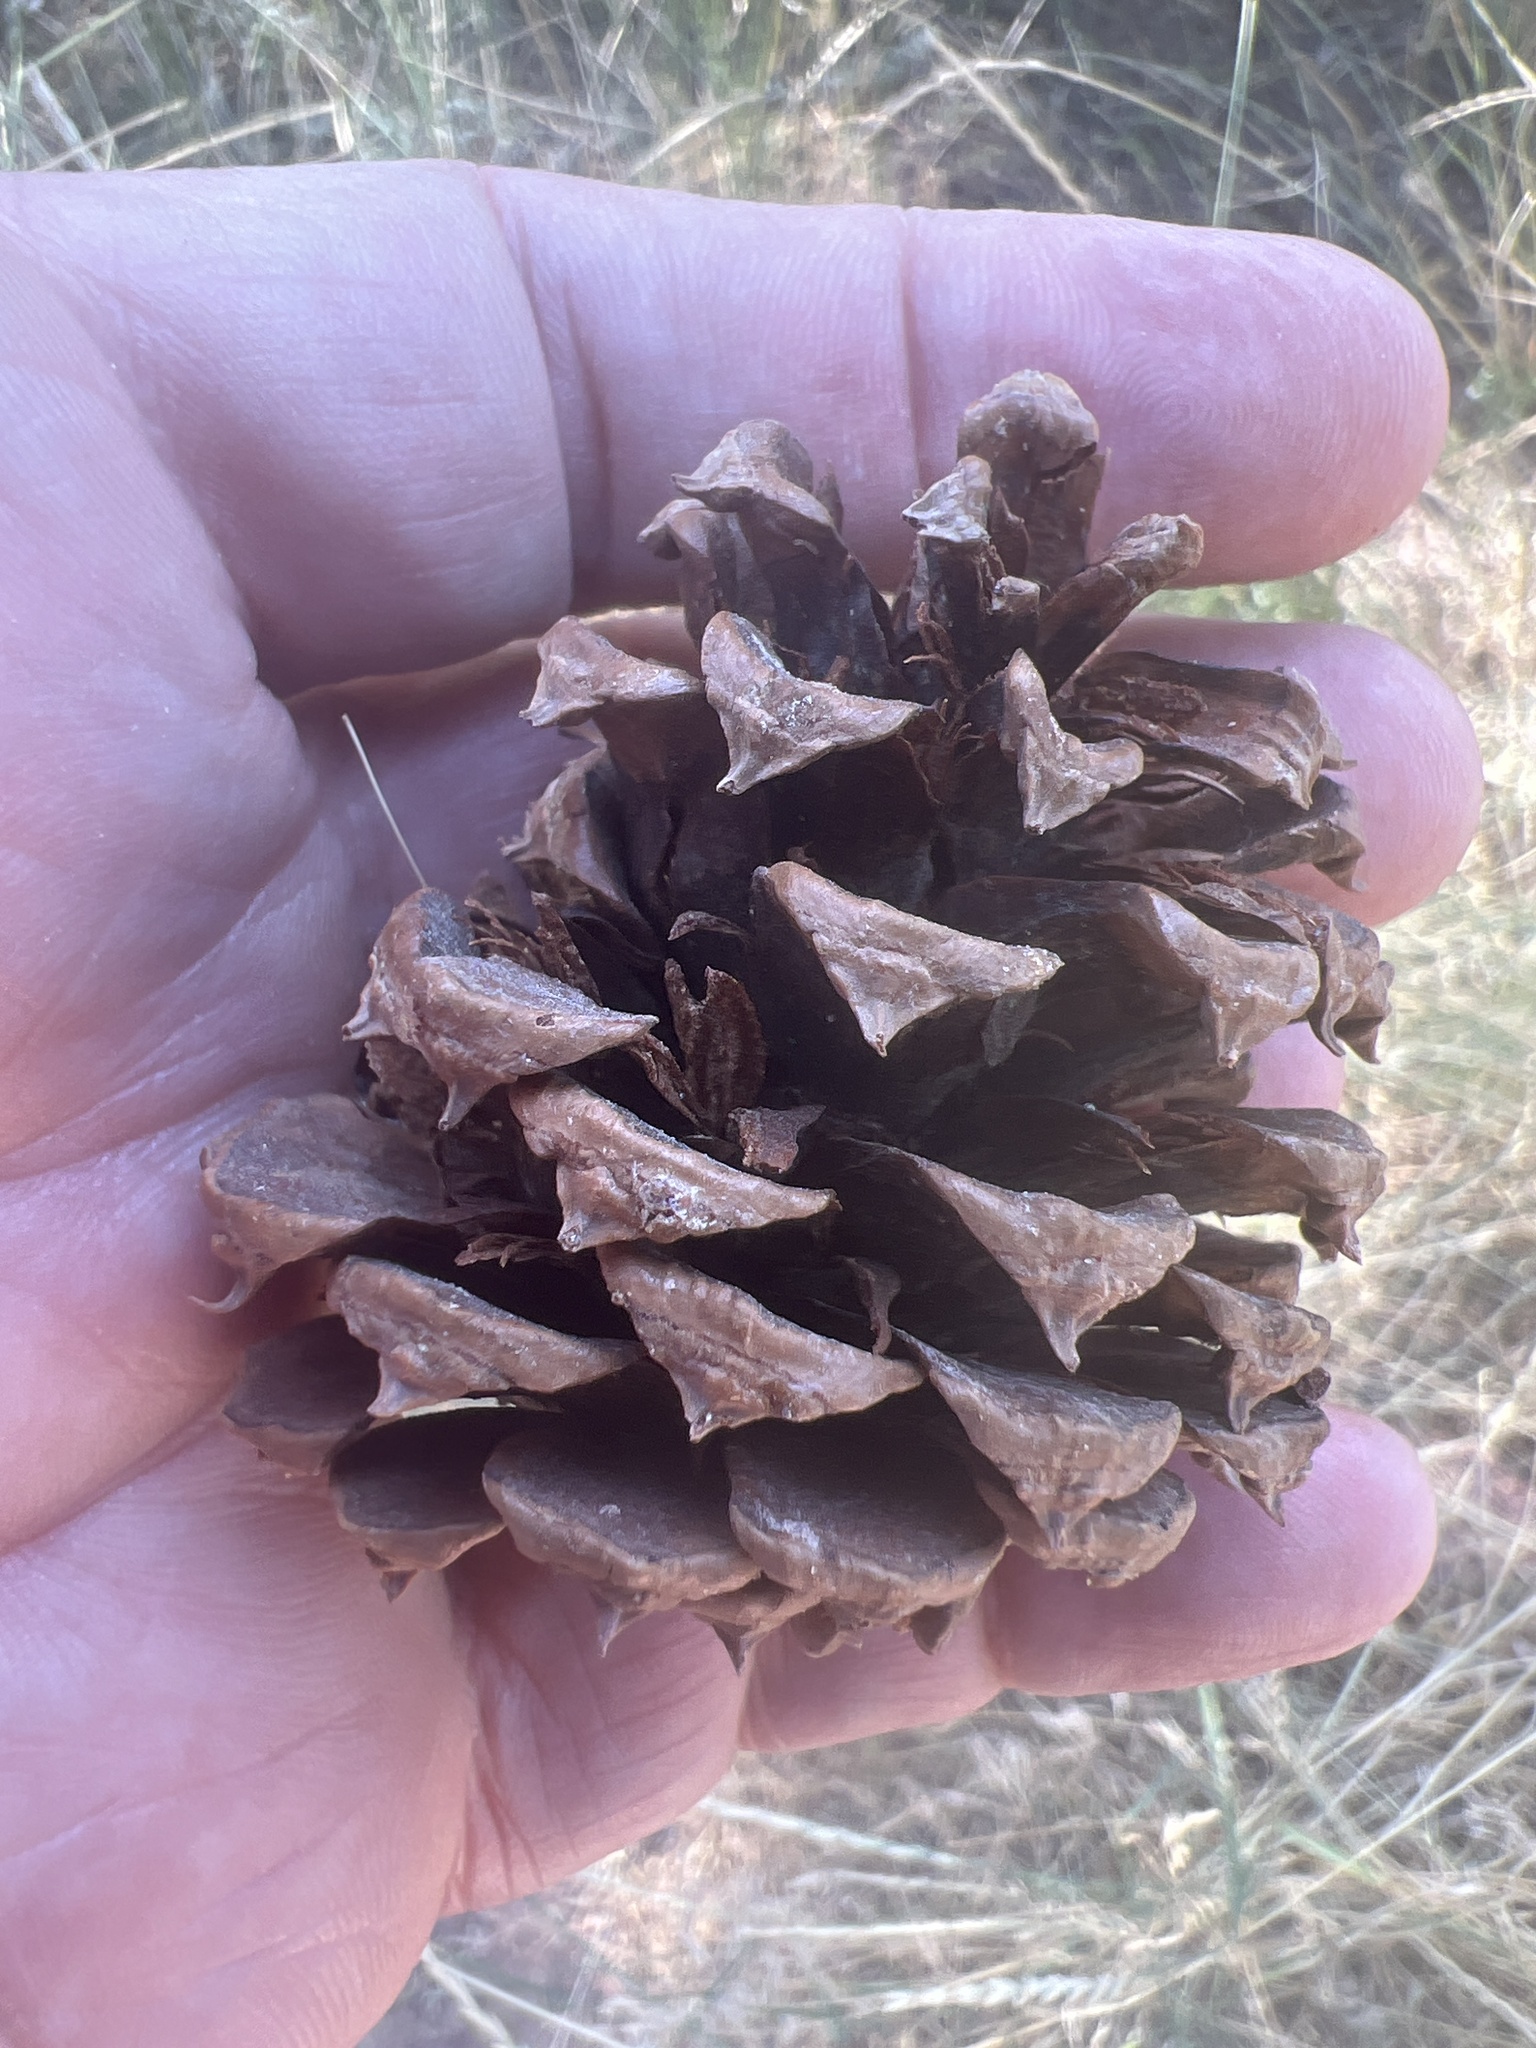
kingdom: Plantae
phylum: Tracheophyta
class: Pinopsida
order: Pinales
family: Pinaceae
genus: Pinus
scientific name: Pinus ponderosa
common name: Western yellow-pine
